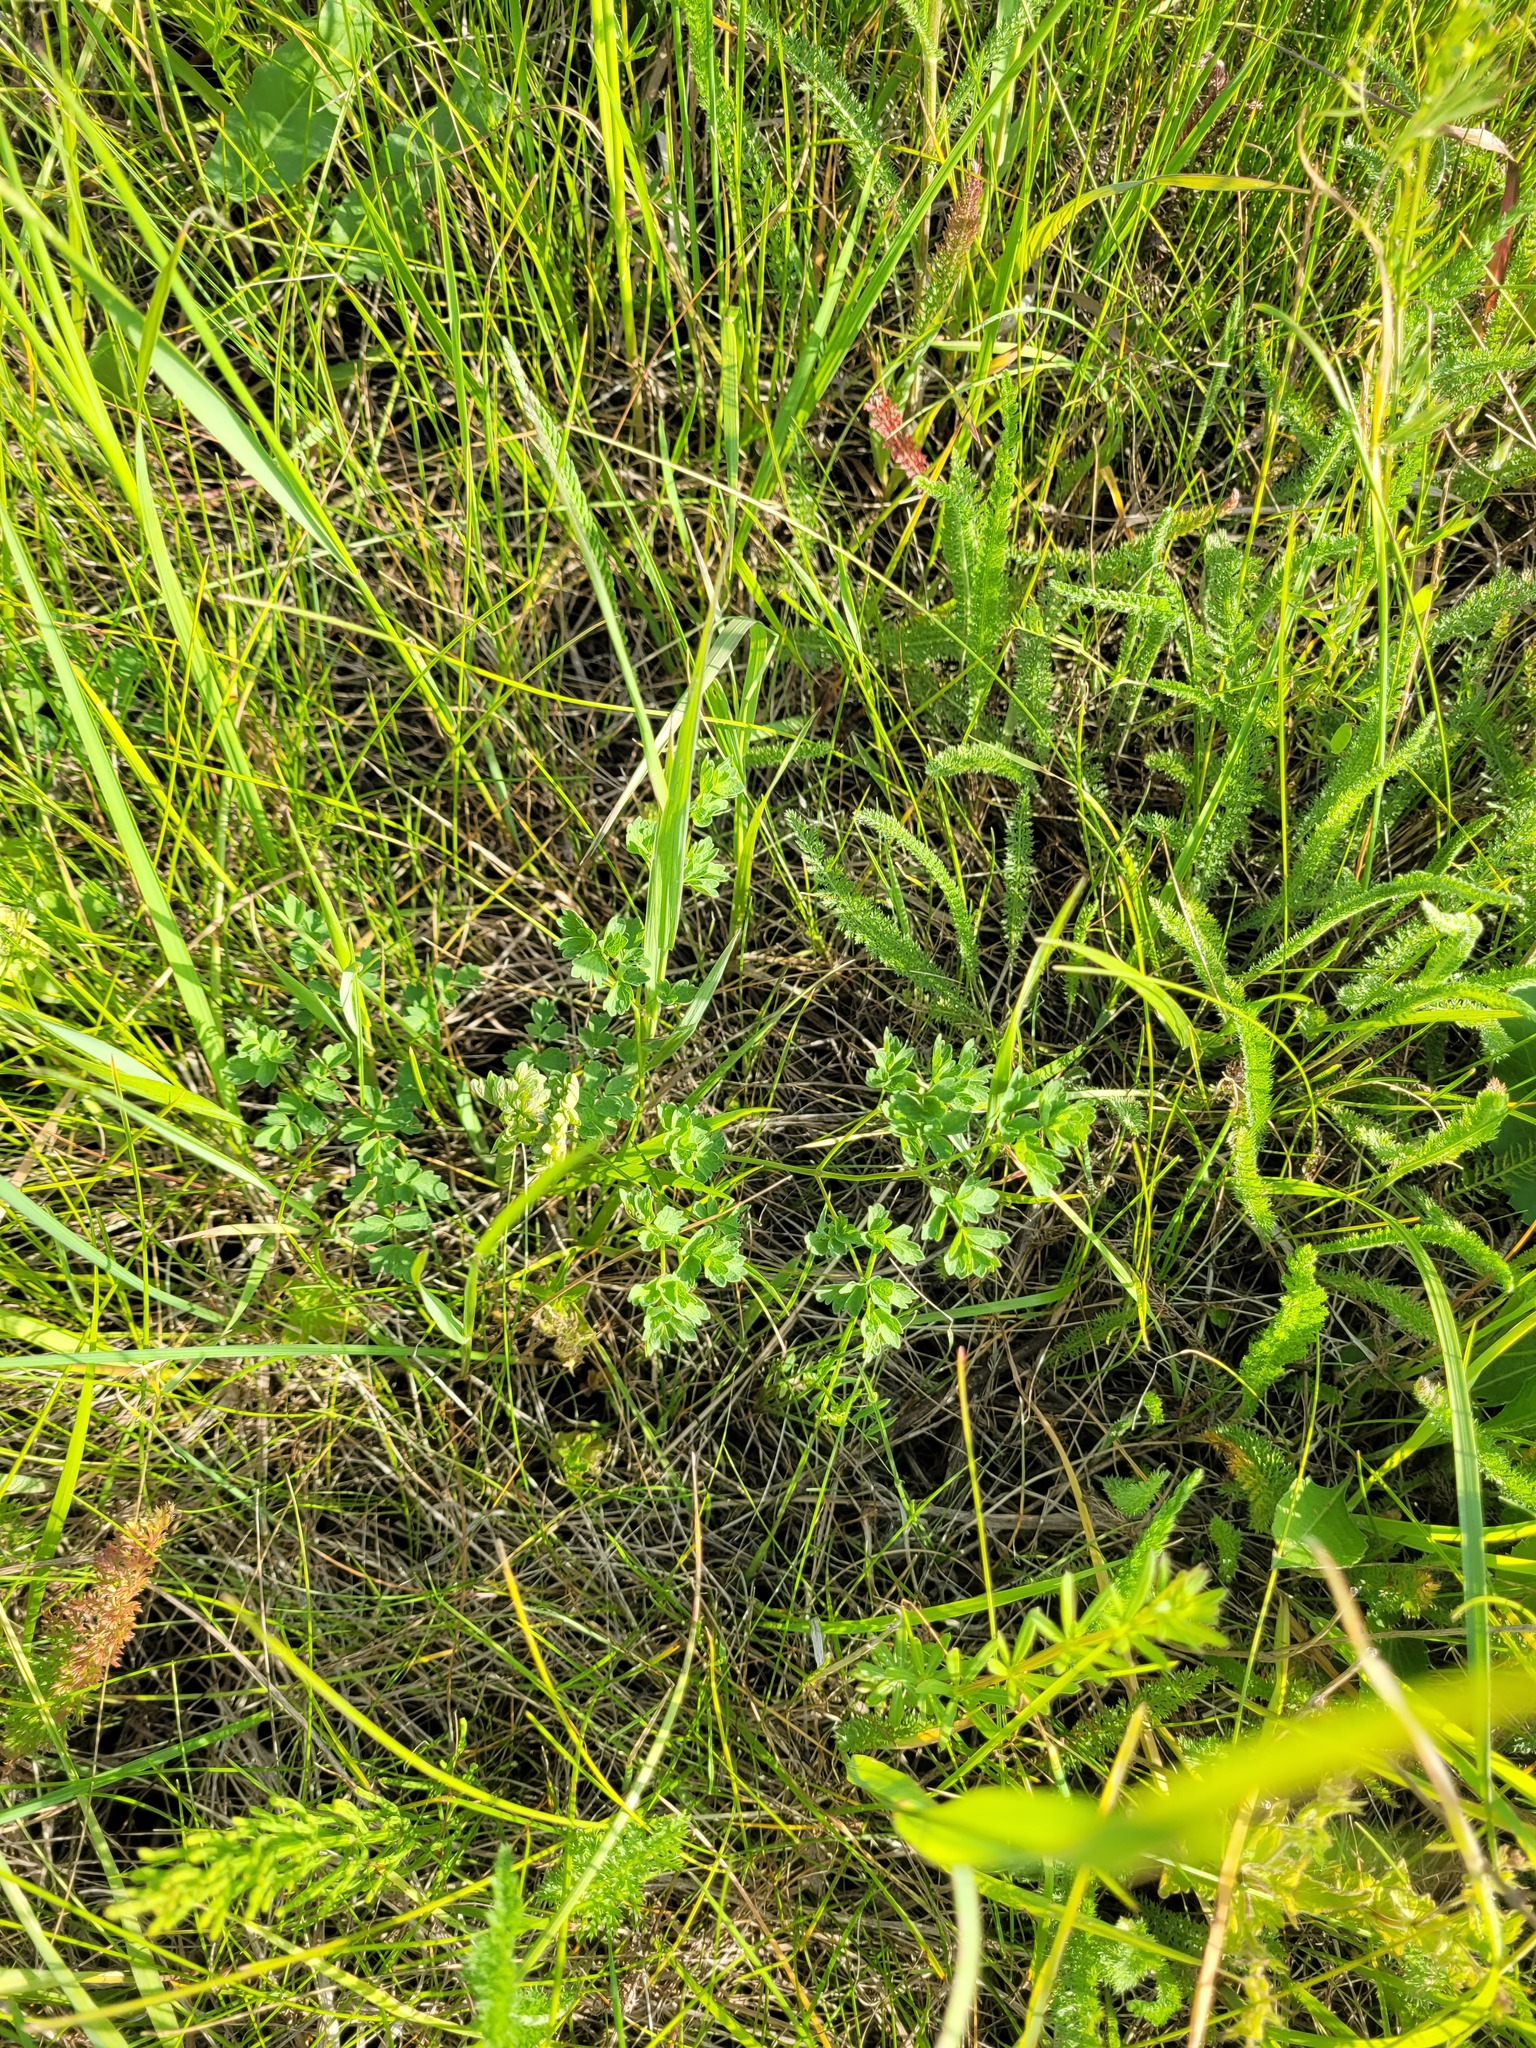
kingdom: Plantae
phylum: Tracheophyta
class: Magnoliopsida
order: Ranunculales
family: Ranunculaceae
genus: Thalictrum
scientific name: Thalictrum minus
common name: Lesser meadow-rue
